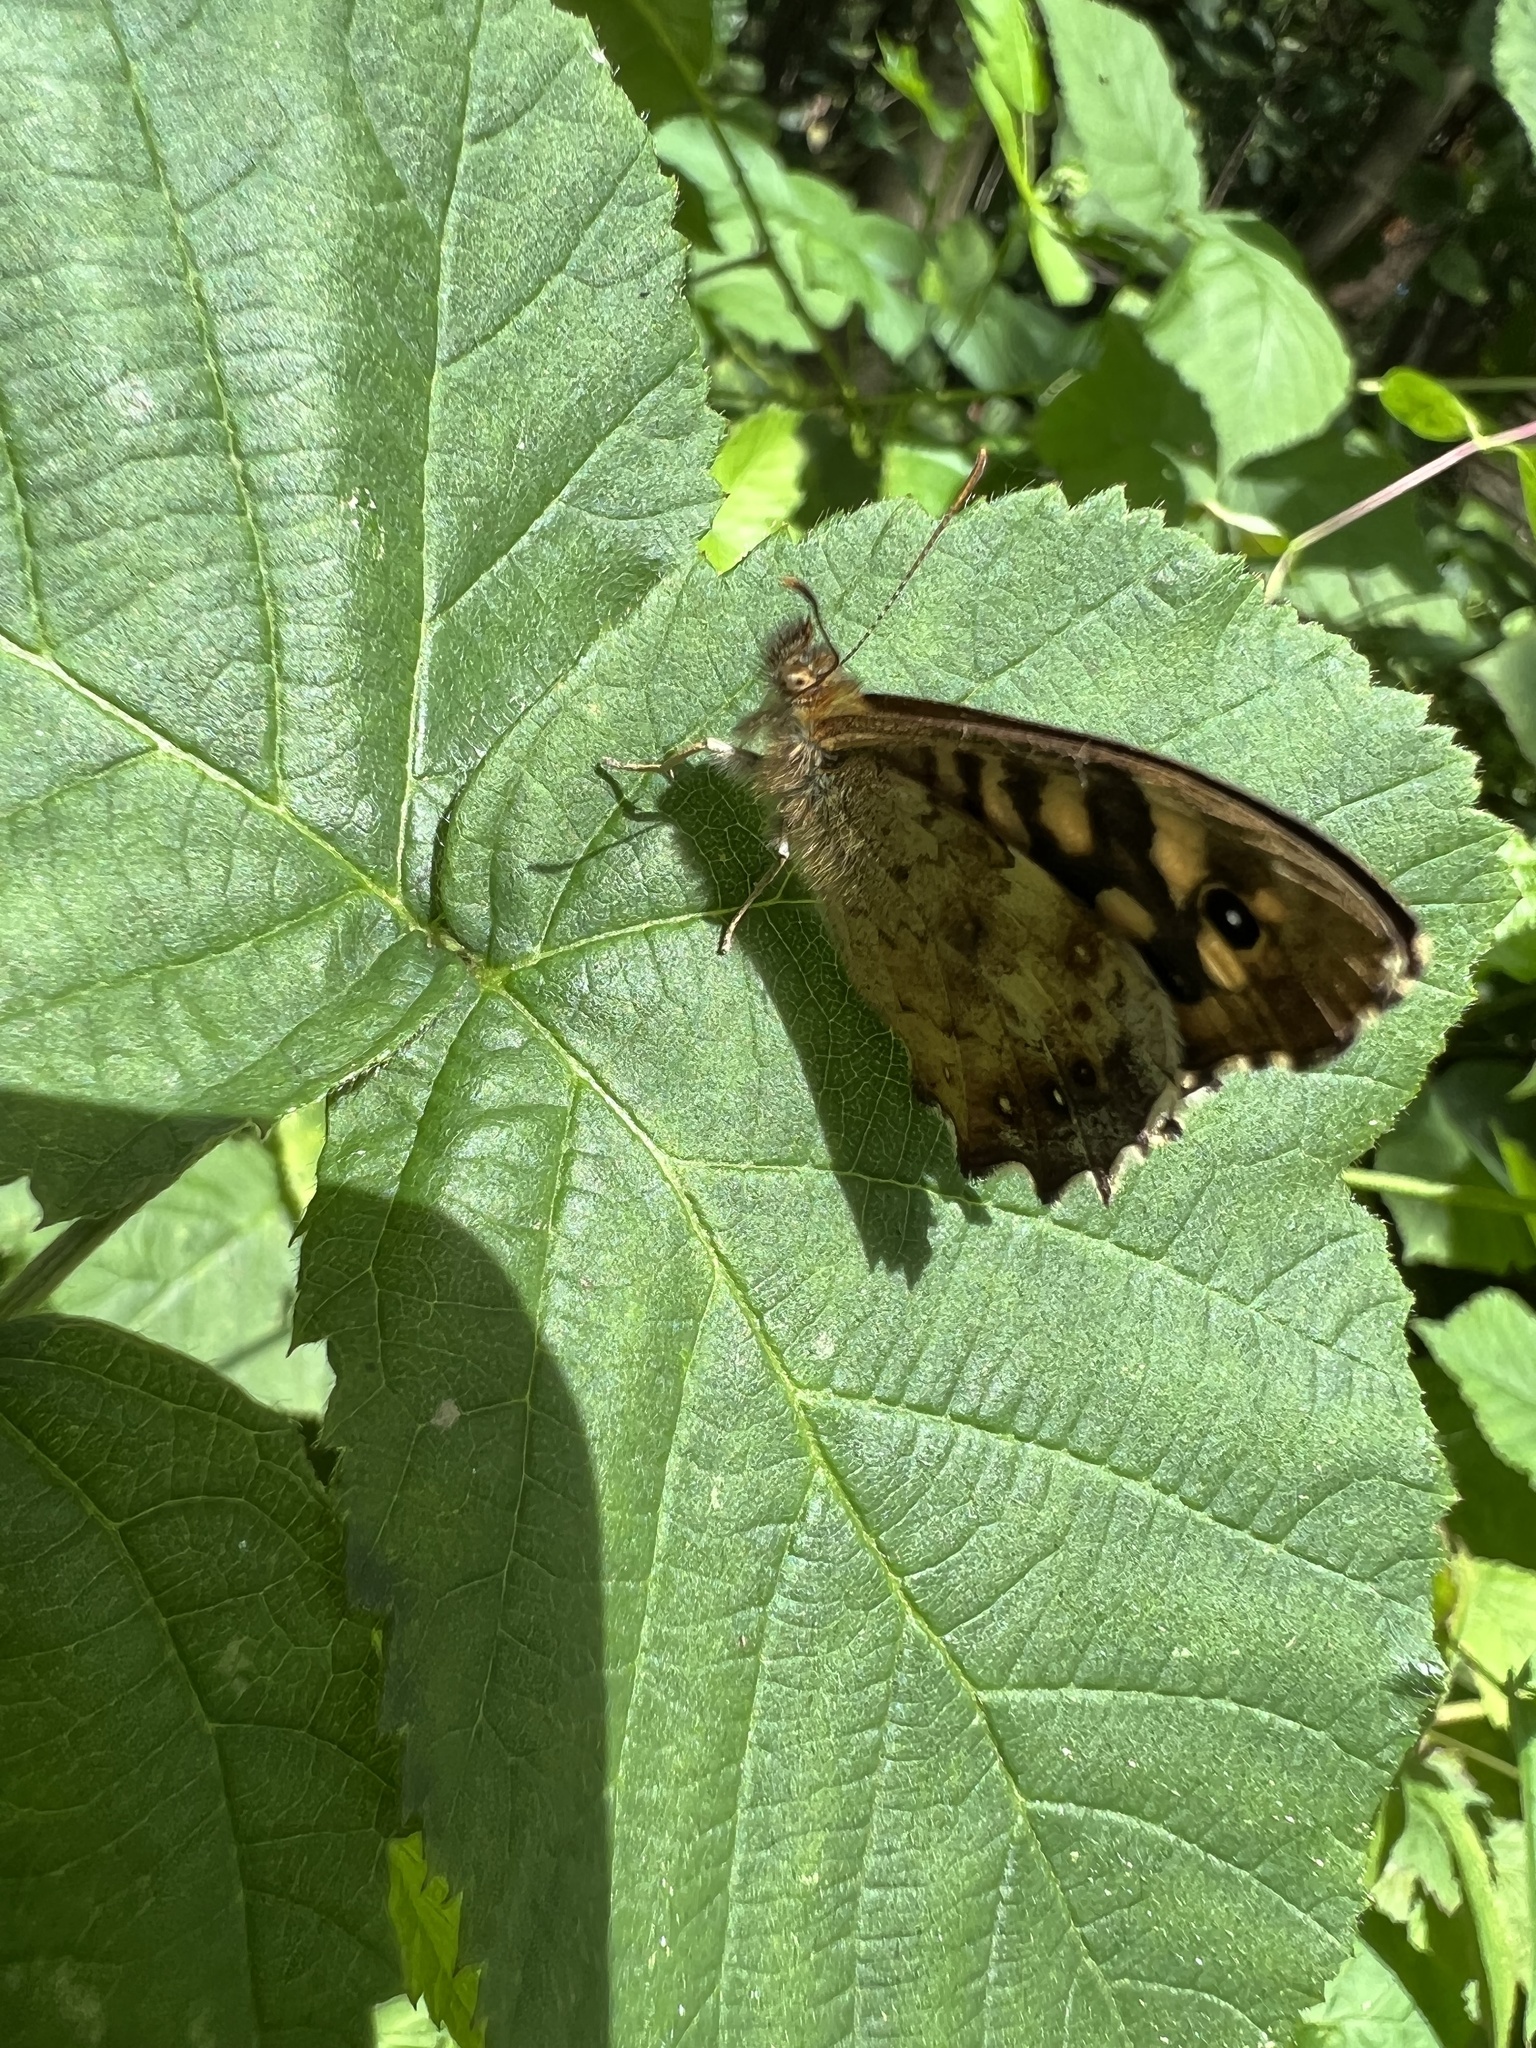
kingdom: Animalia
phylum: Arthropoda
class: Insecta
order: Lepidoptera
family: Nymphalidae
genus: Pararge
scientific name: Pararge aegeria
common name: Speckled wood
